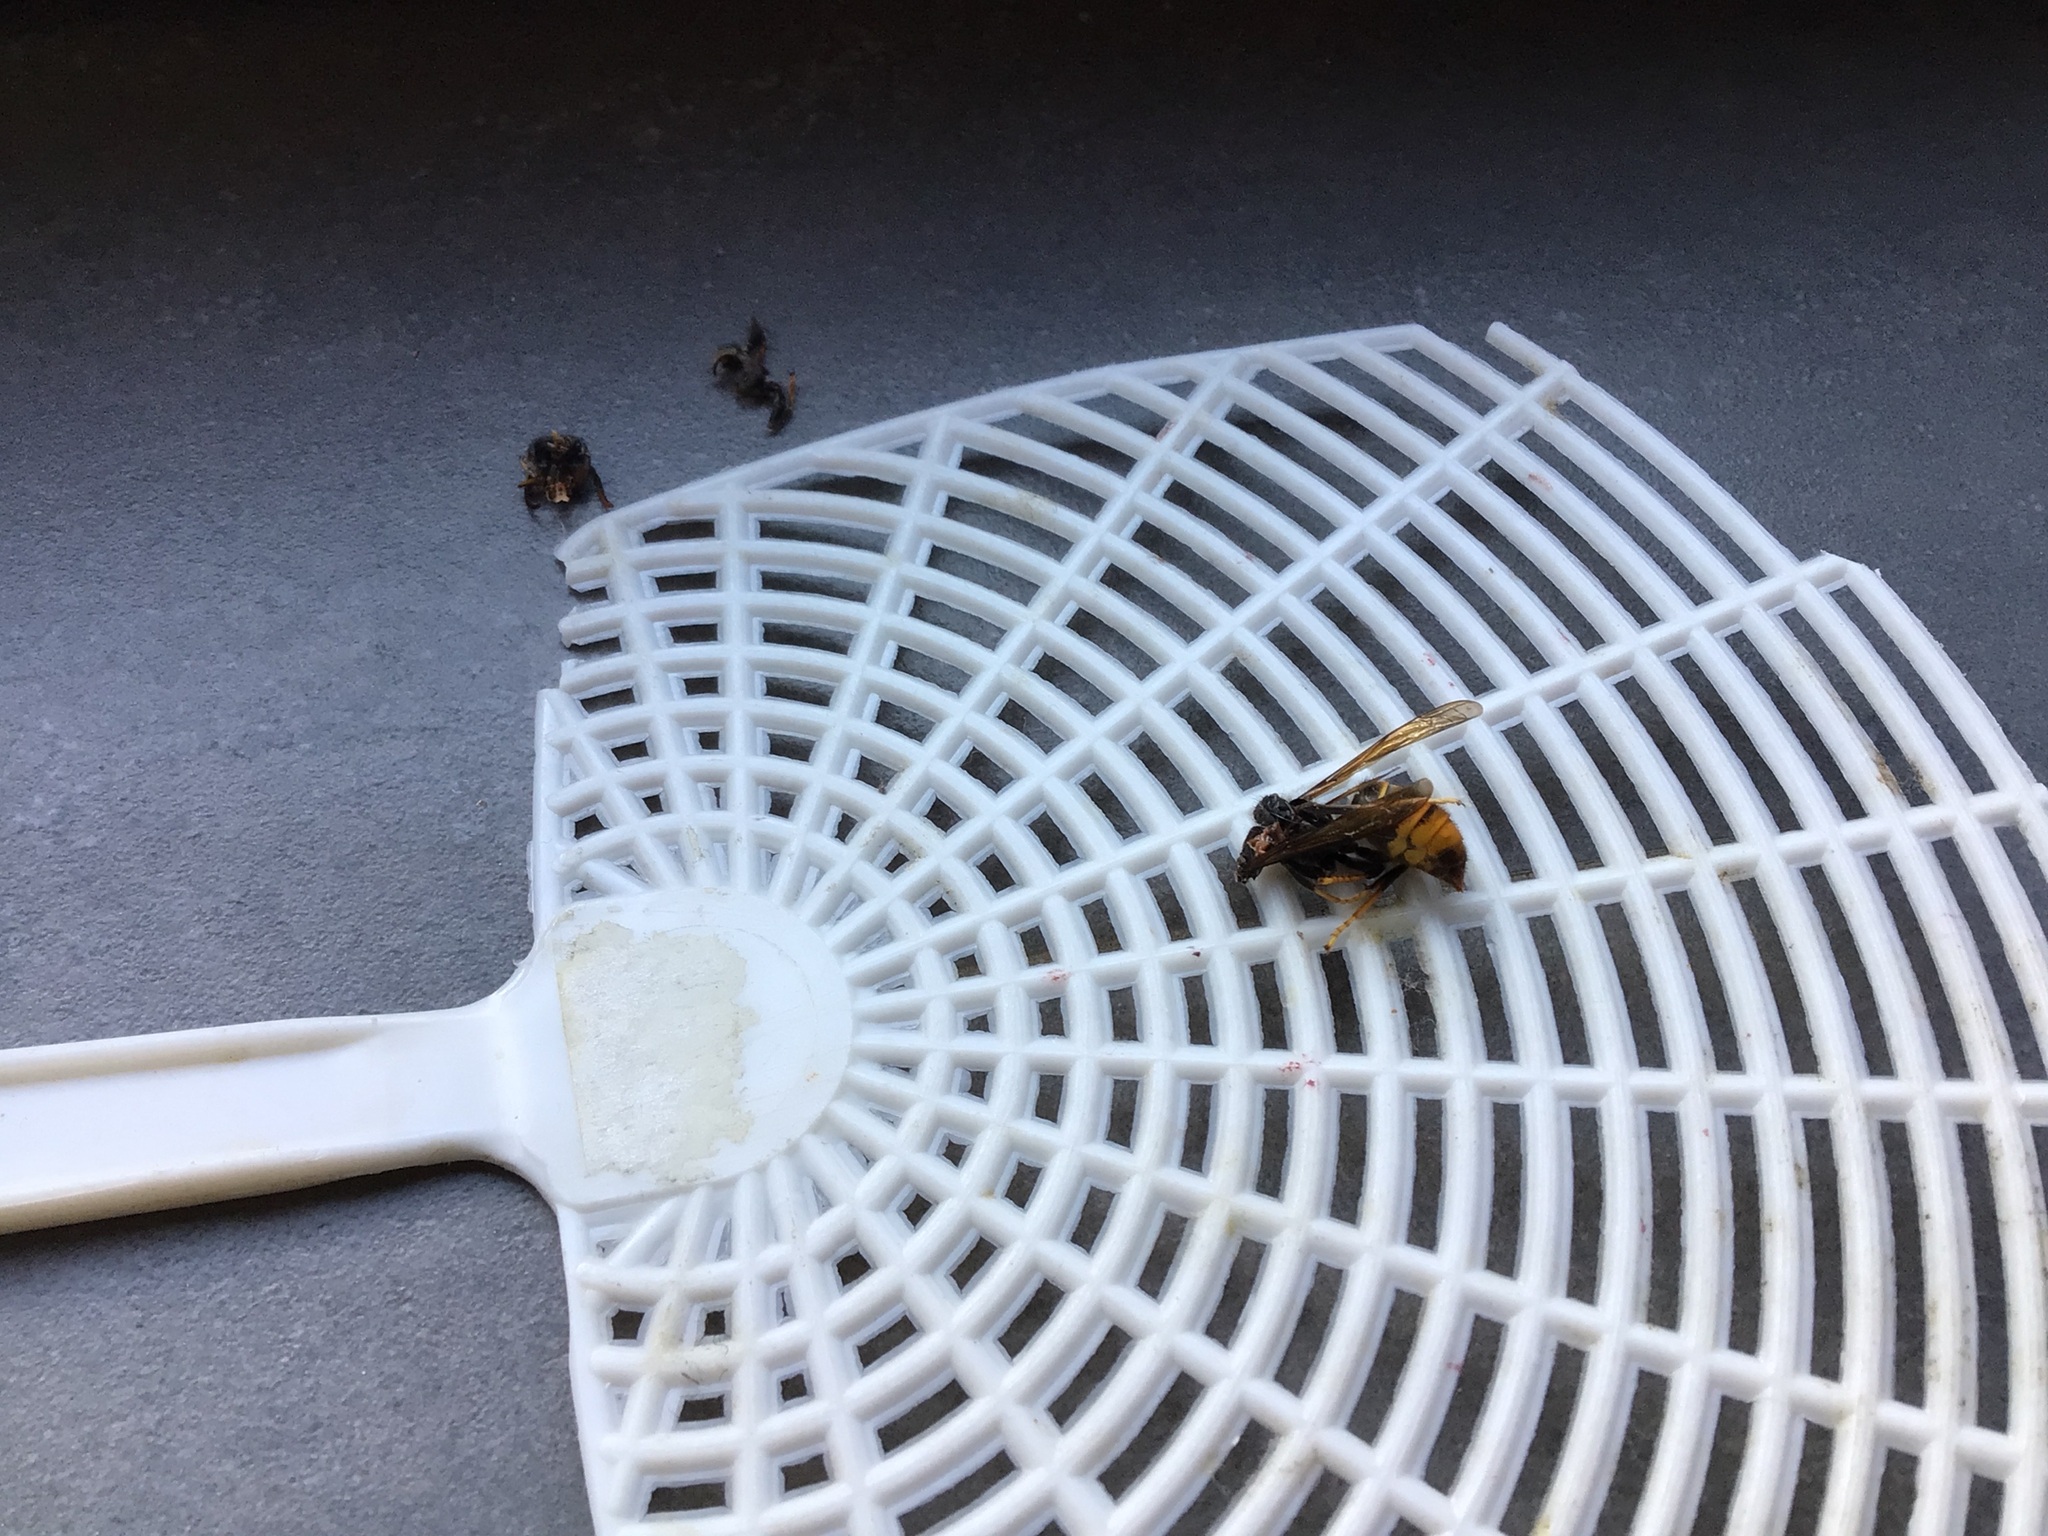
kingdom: Animalia
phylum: Arthropoda
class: Insecta
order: Hymenoptera
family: Vespidae
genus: Vespa
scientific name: Vespa velutina
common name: Asian hornet
